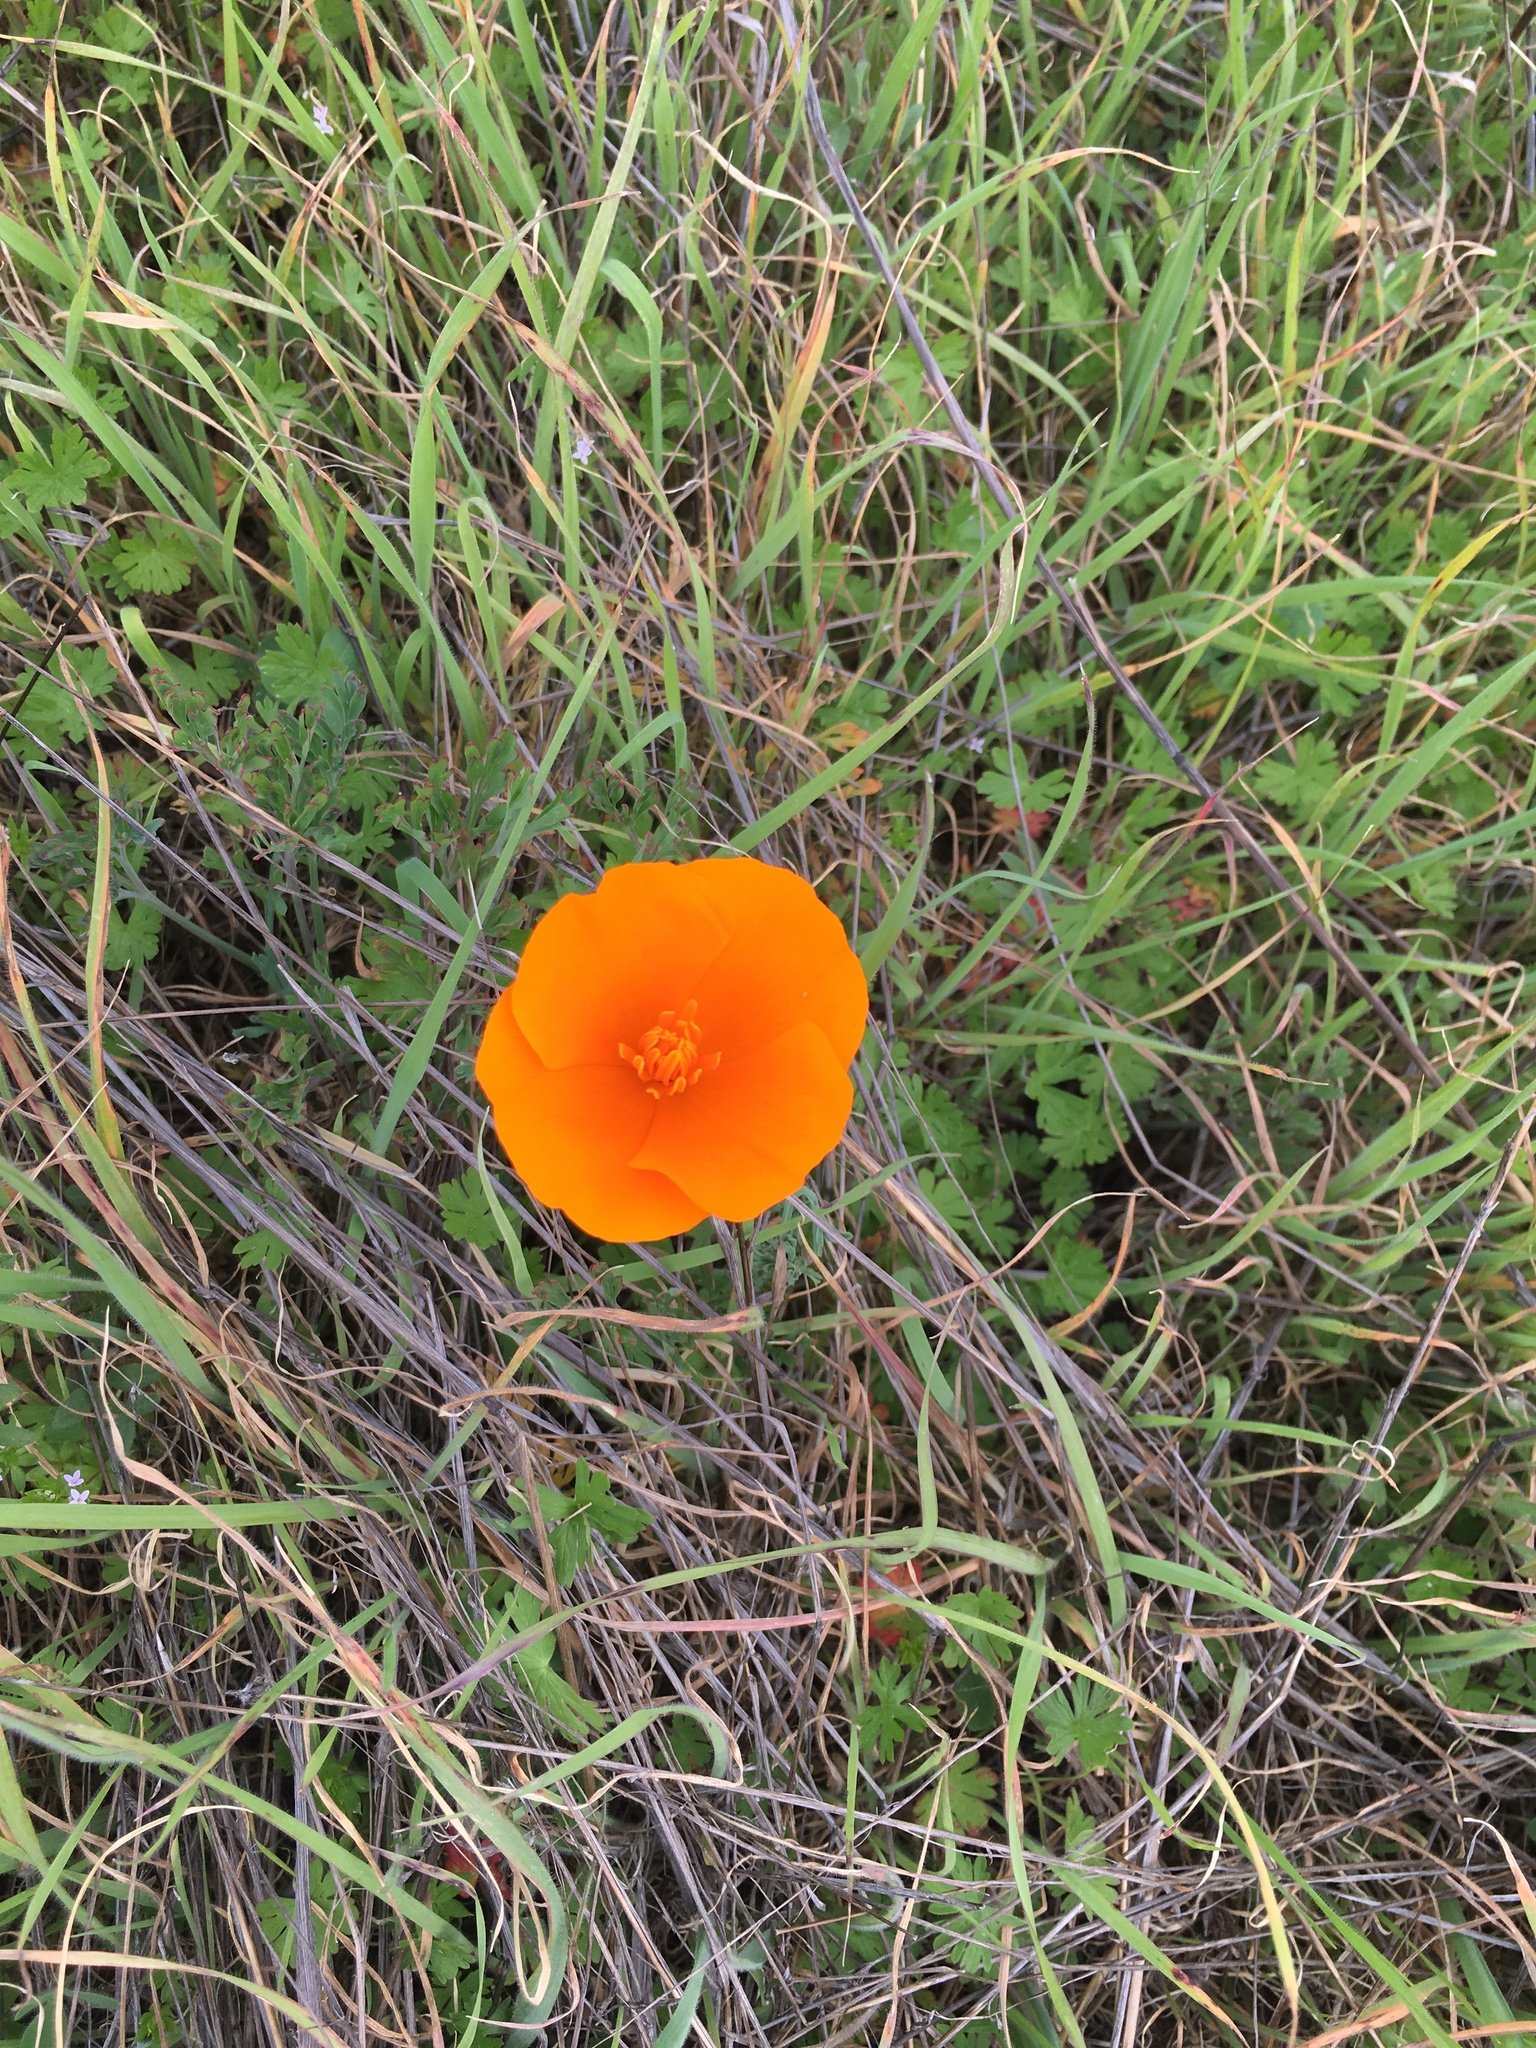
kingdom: Plantae
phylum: Tracheophyta
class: Magnoliopsida
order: Ranunculales
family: Papaveraceae
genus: Eschscholzia
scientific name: Eschscholzia californica
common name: California poppy
